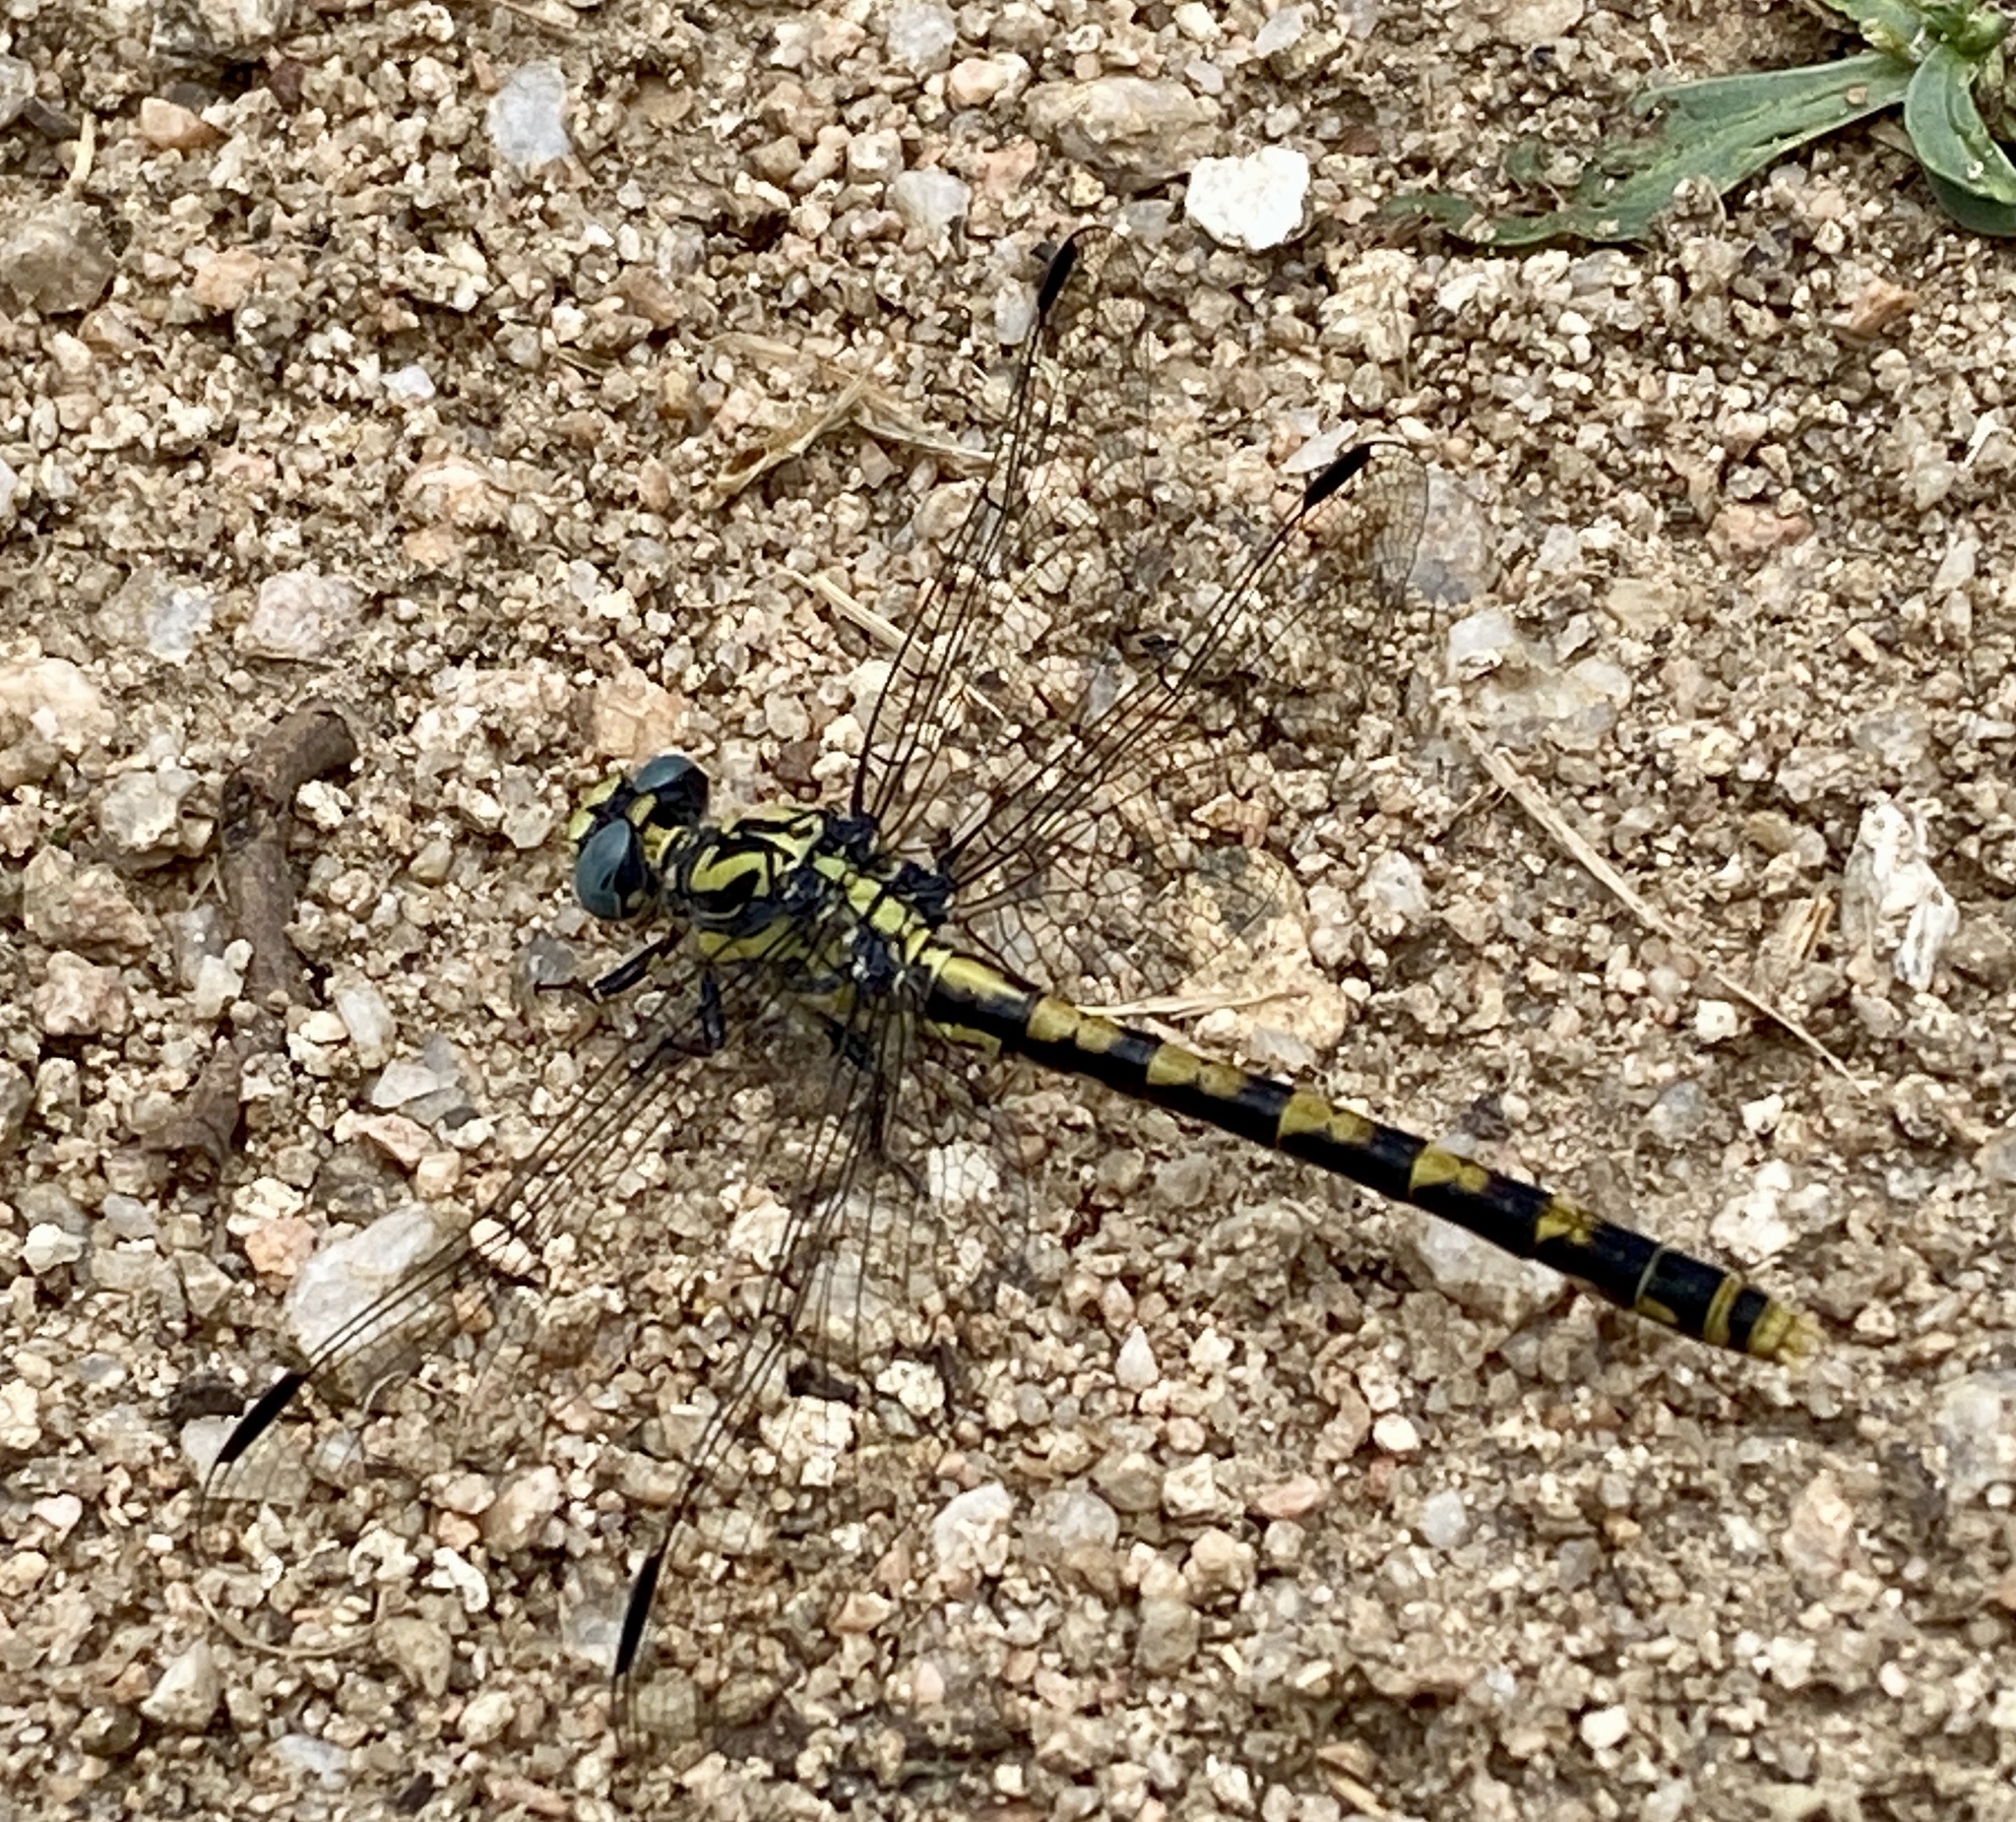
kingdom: Animalia
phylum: Arthropoda
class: Insecta
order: Odonata
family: Gomphidae
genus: Onychogomphus
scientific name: Onychogomphus uncatus
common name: Large pincertail
